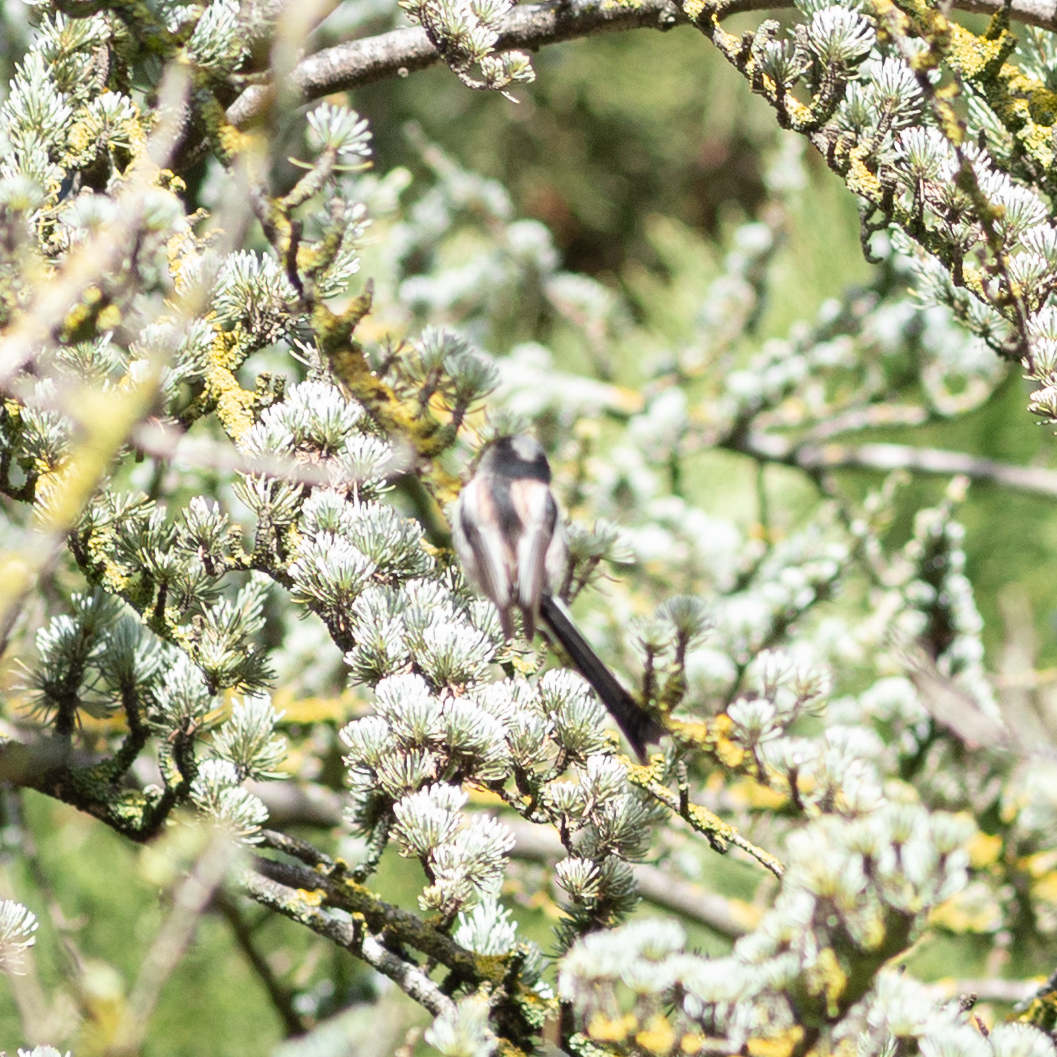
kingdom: Animalia
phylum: Chordata
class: Aves
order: Passeriformes
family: Aegithalidae
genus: Aegithalos
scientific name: Aegithalos caudatus
